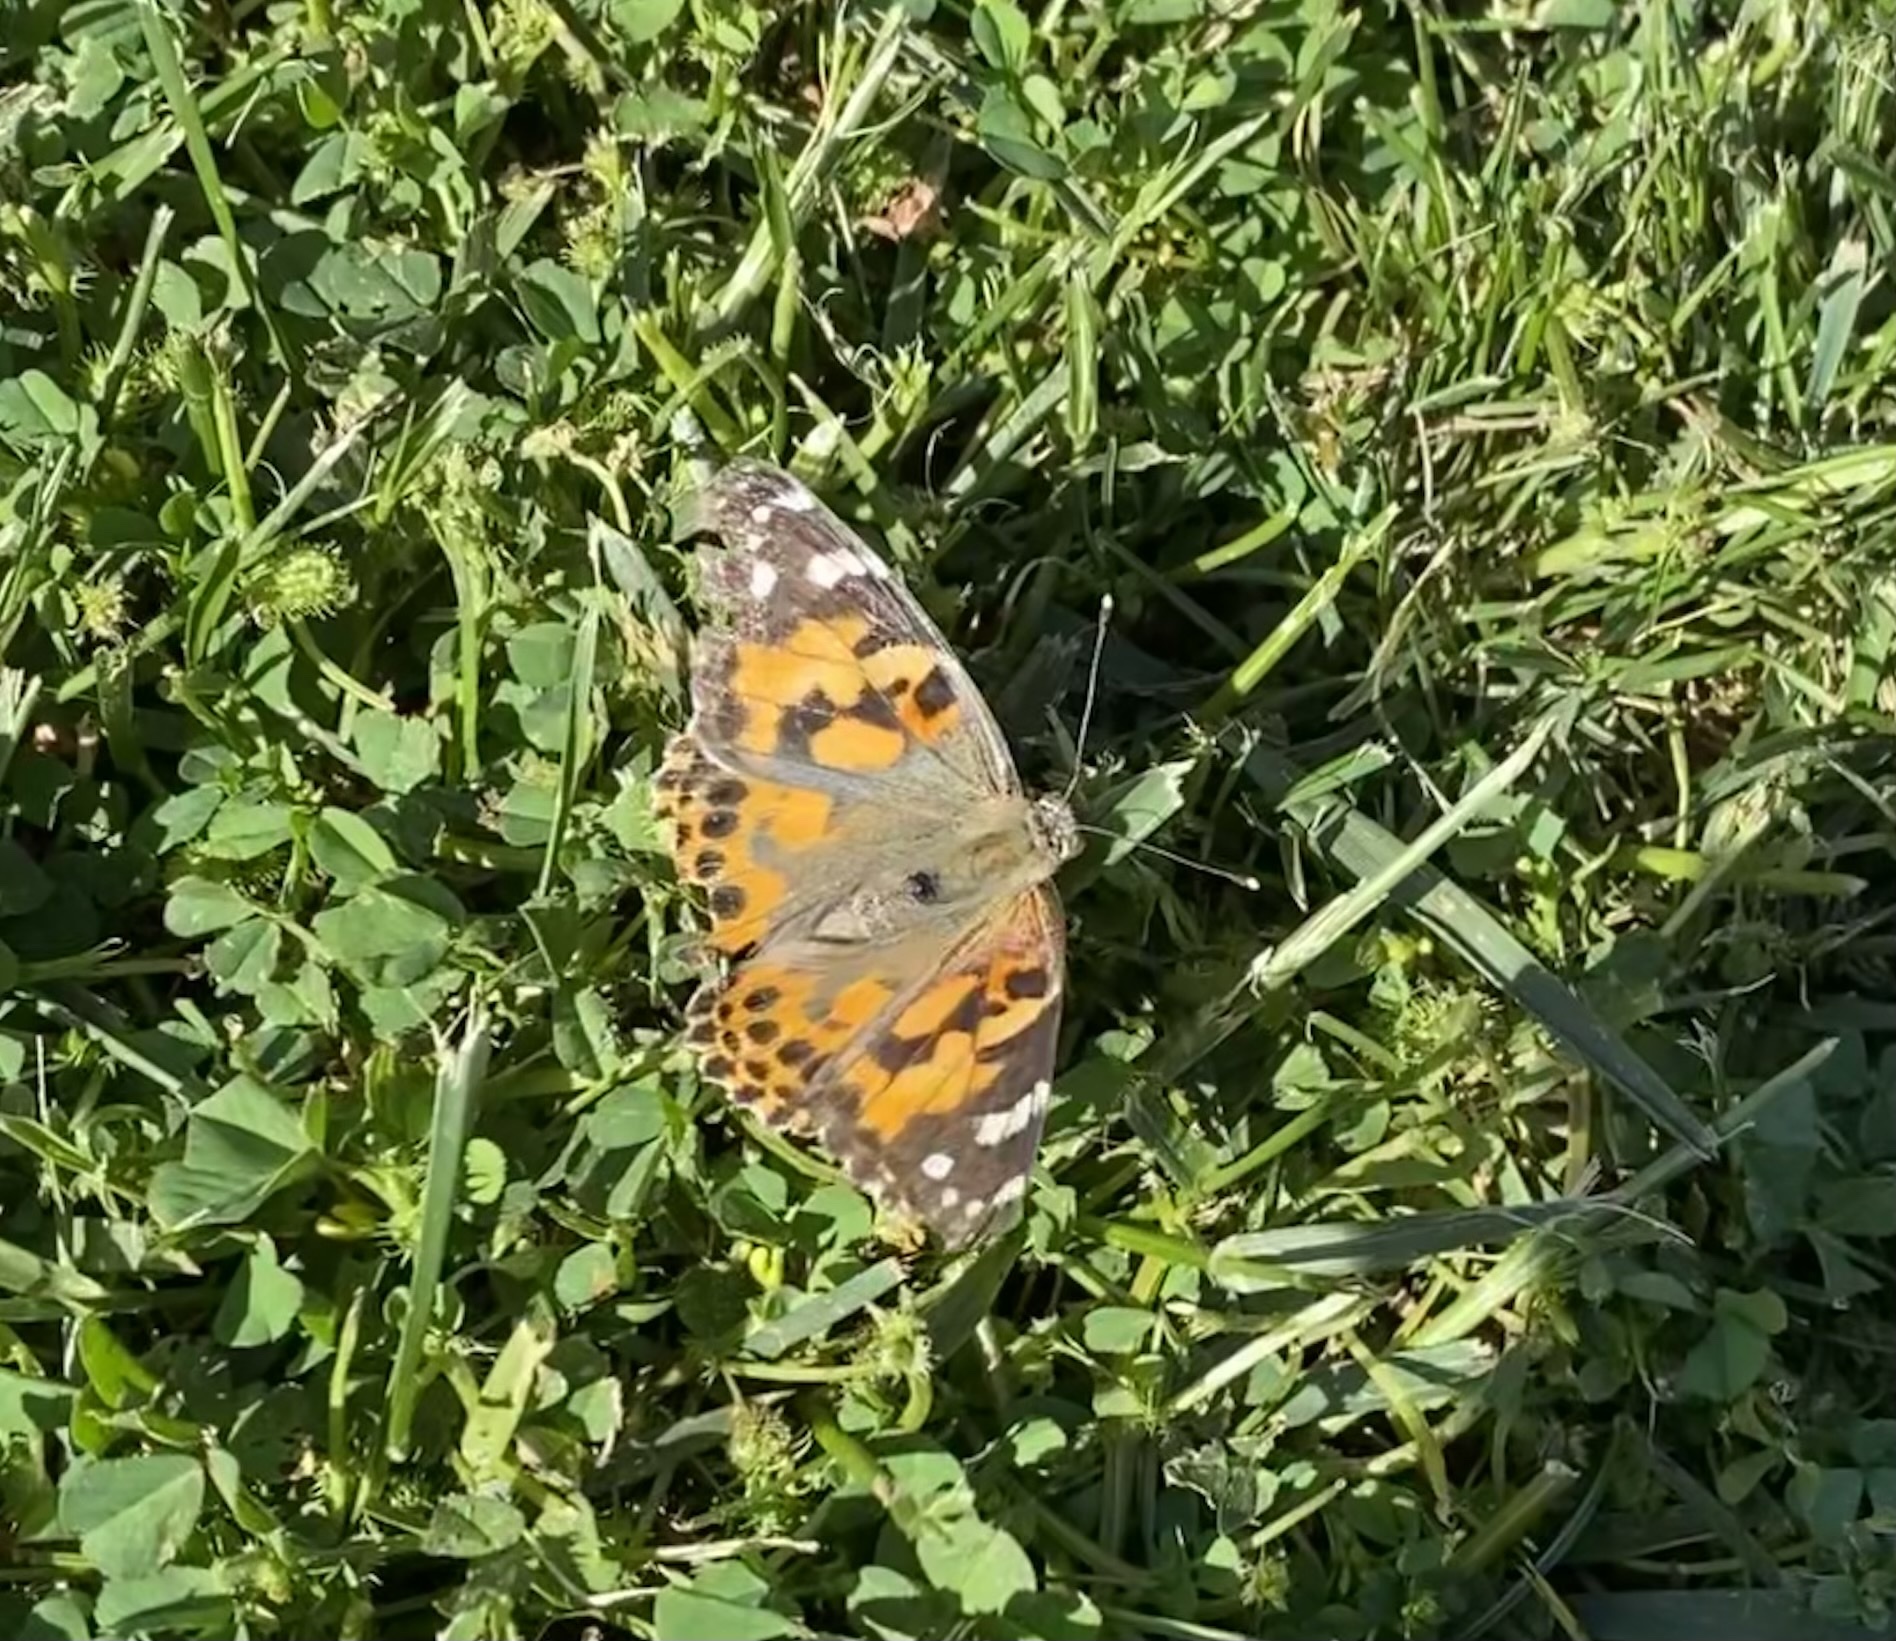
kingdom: Animalia
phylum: Arthropoda
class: Insecta
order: Lepidoptera
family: Nymphalidae
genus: Vanessa
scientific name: Vanessa cardui
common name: Painted lady
